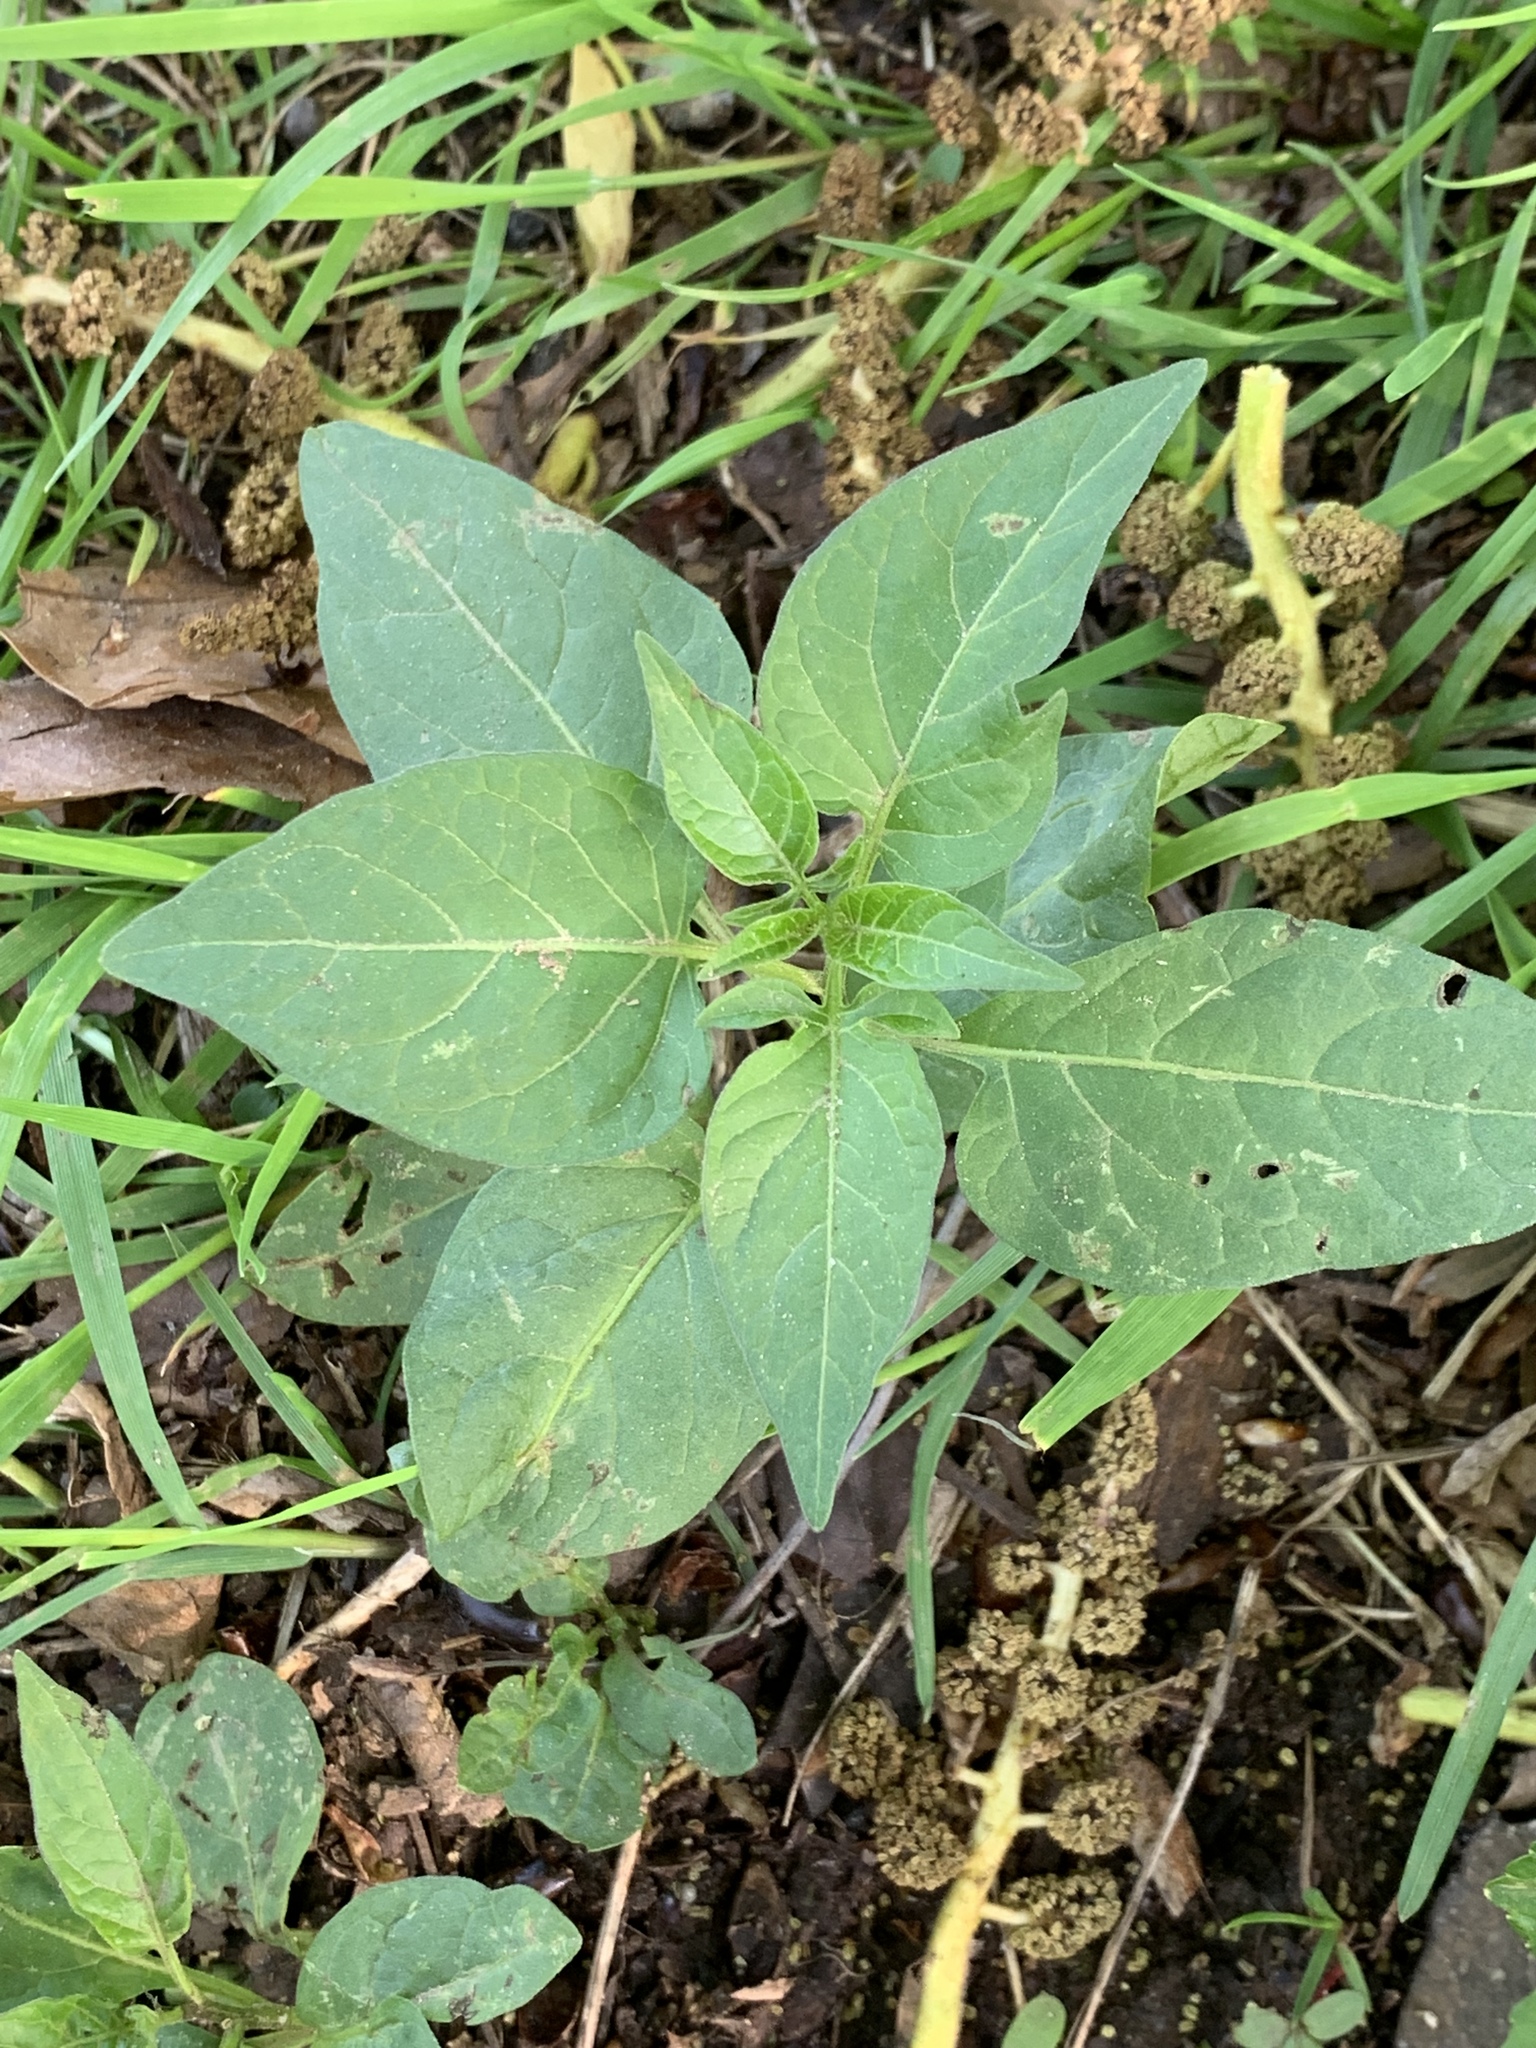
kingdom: Plantae
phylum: Tracheophyta
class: Magnoliopsida
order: Solanales
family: Solanaceae
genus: Solanum
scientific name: Solanum dulcamara
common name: Climbing nightshade
